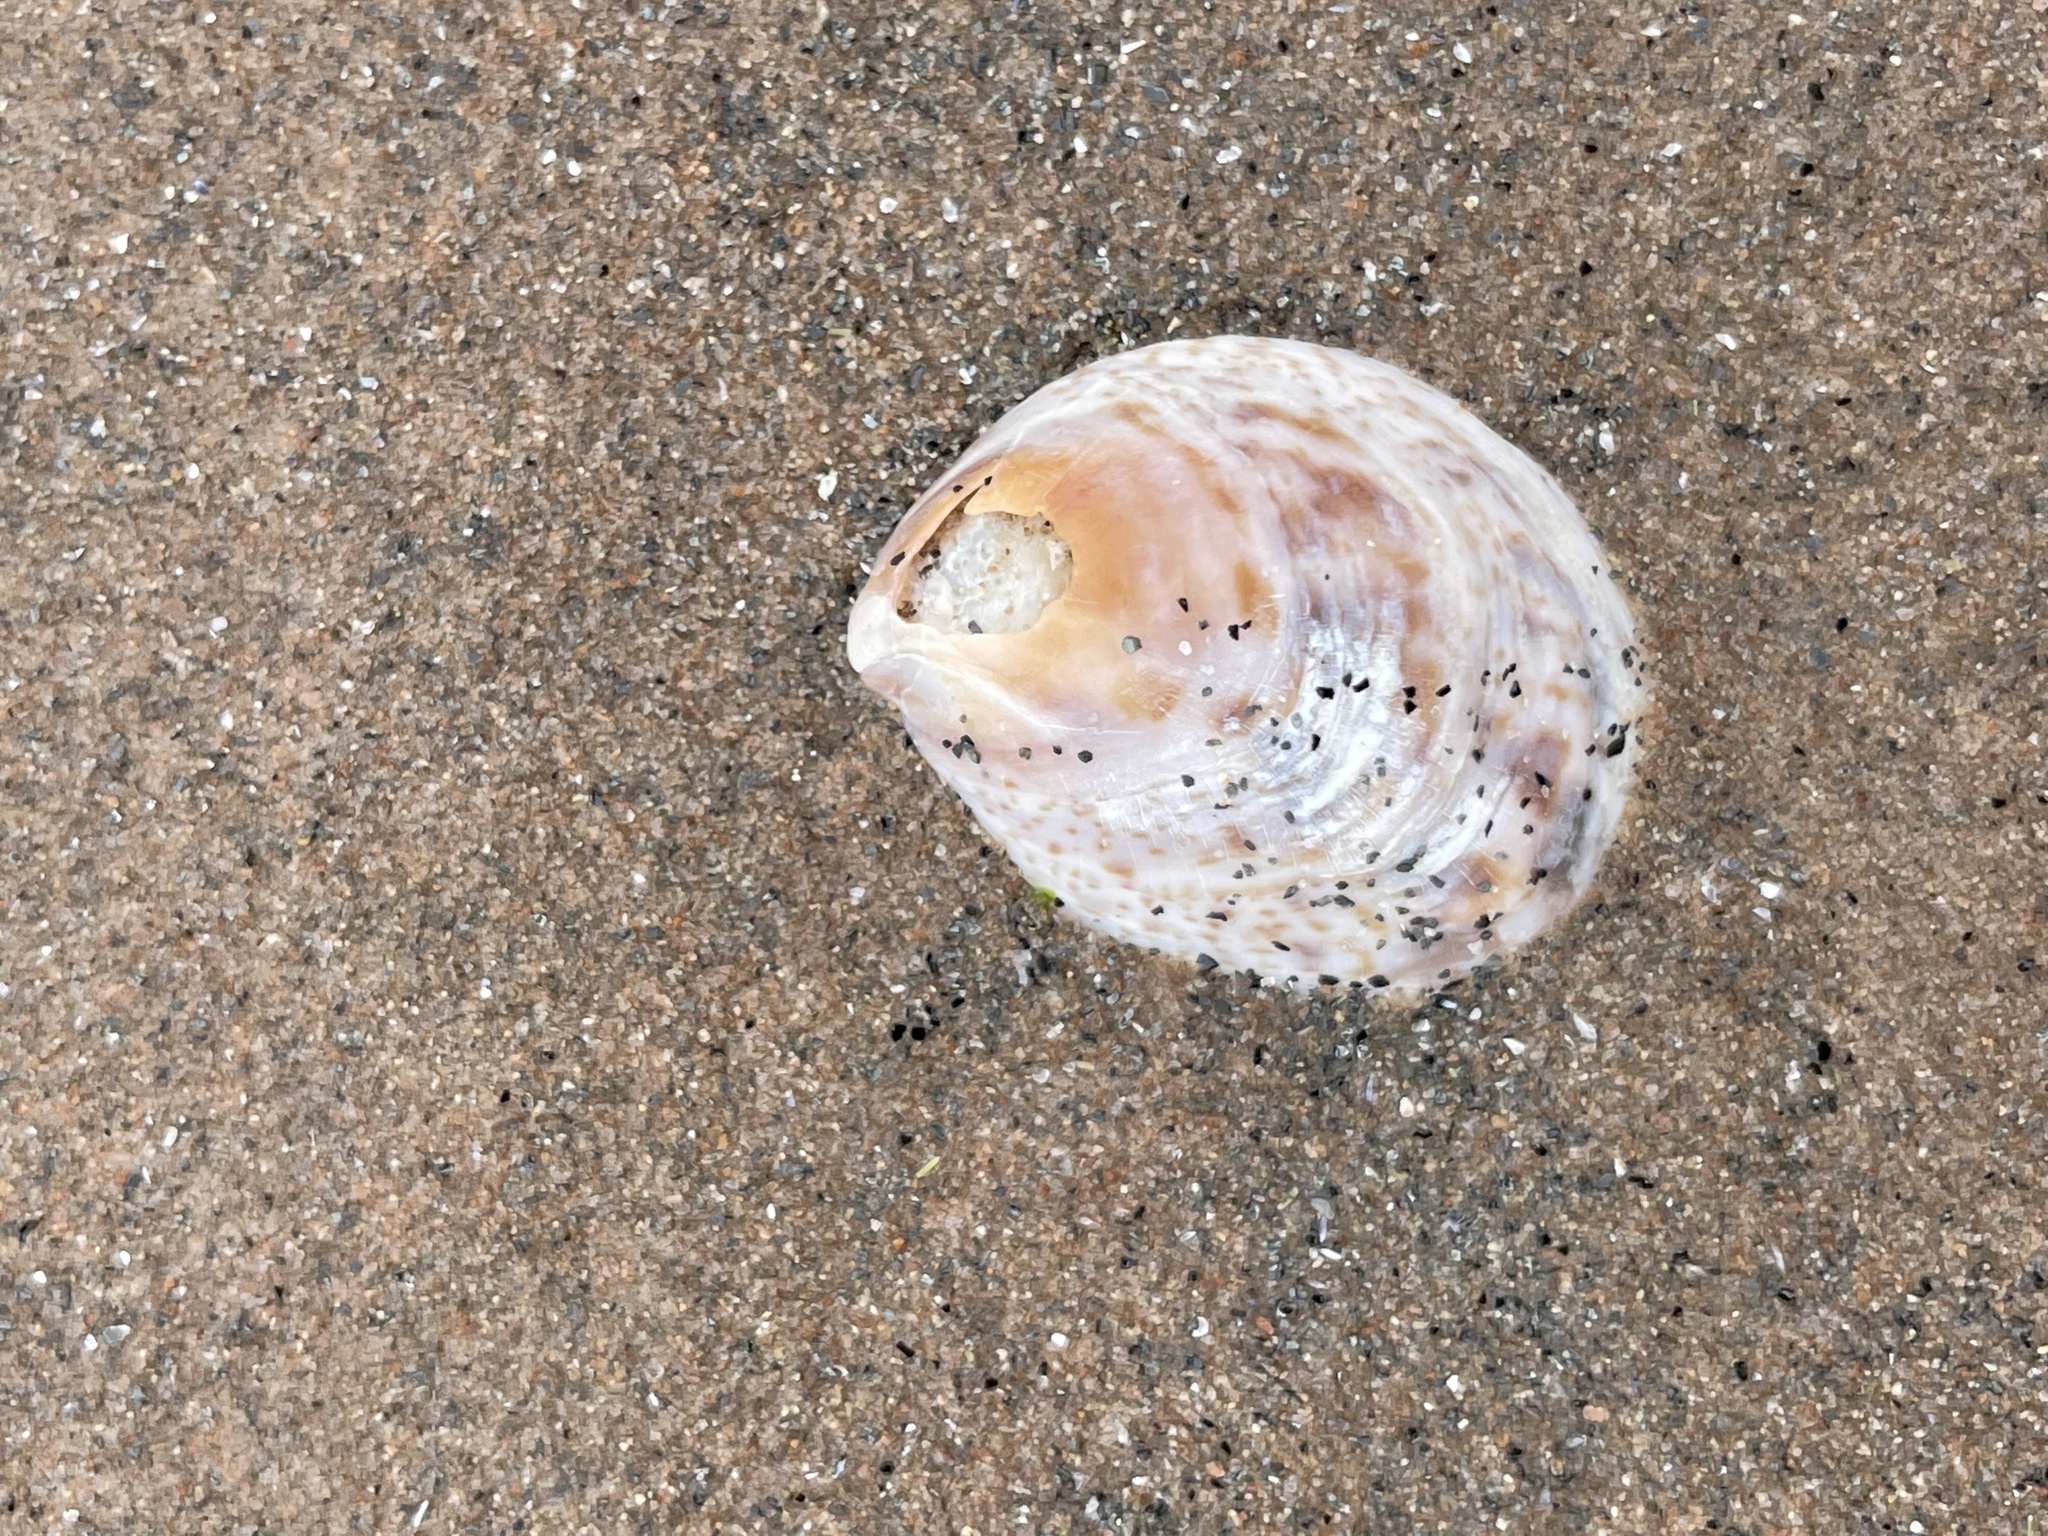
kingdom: Animalia
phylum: Mollusca
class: Gastropoda
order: Littorinimorpha
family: Calyptraeidae
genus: Crepidula
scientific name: Crepidula fornicata
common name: Slipper limpet
